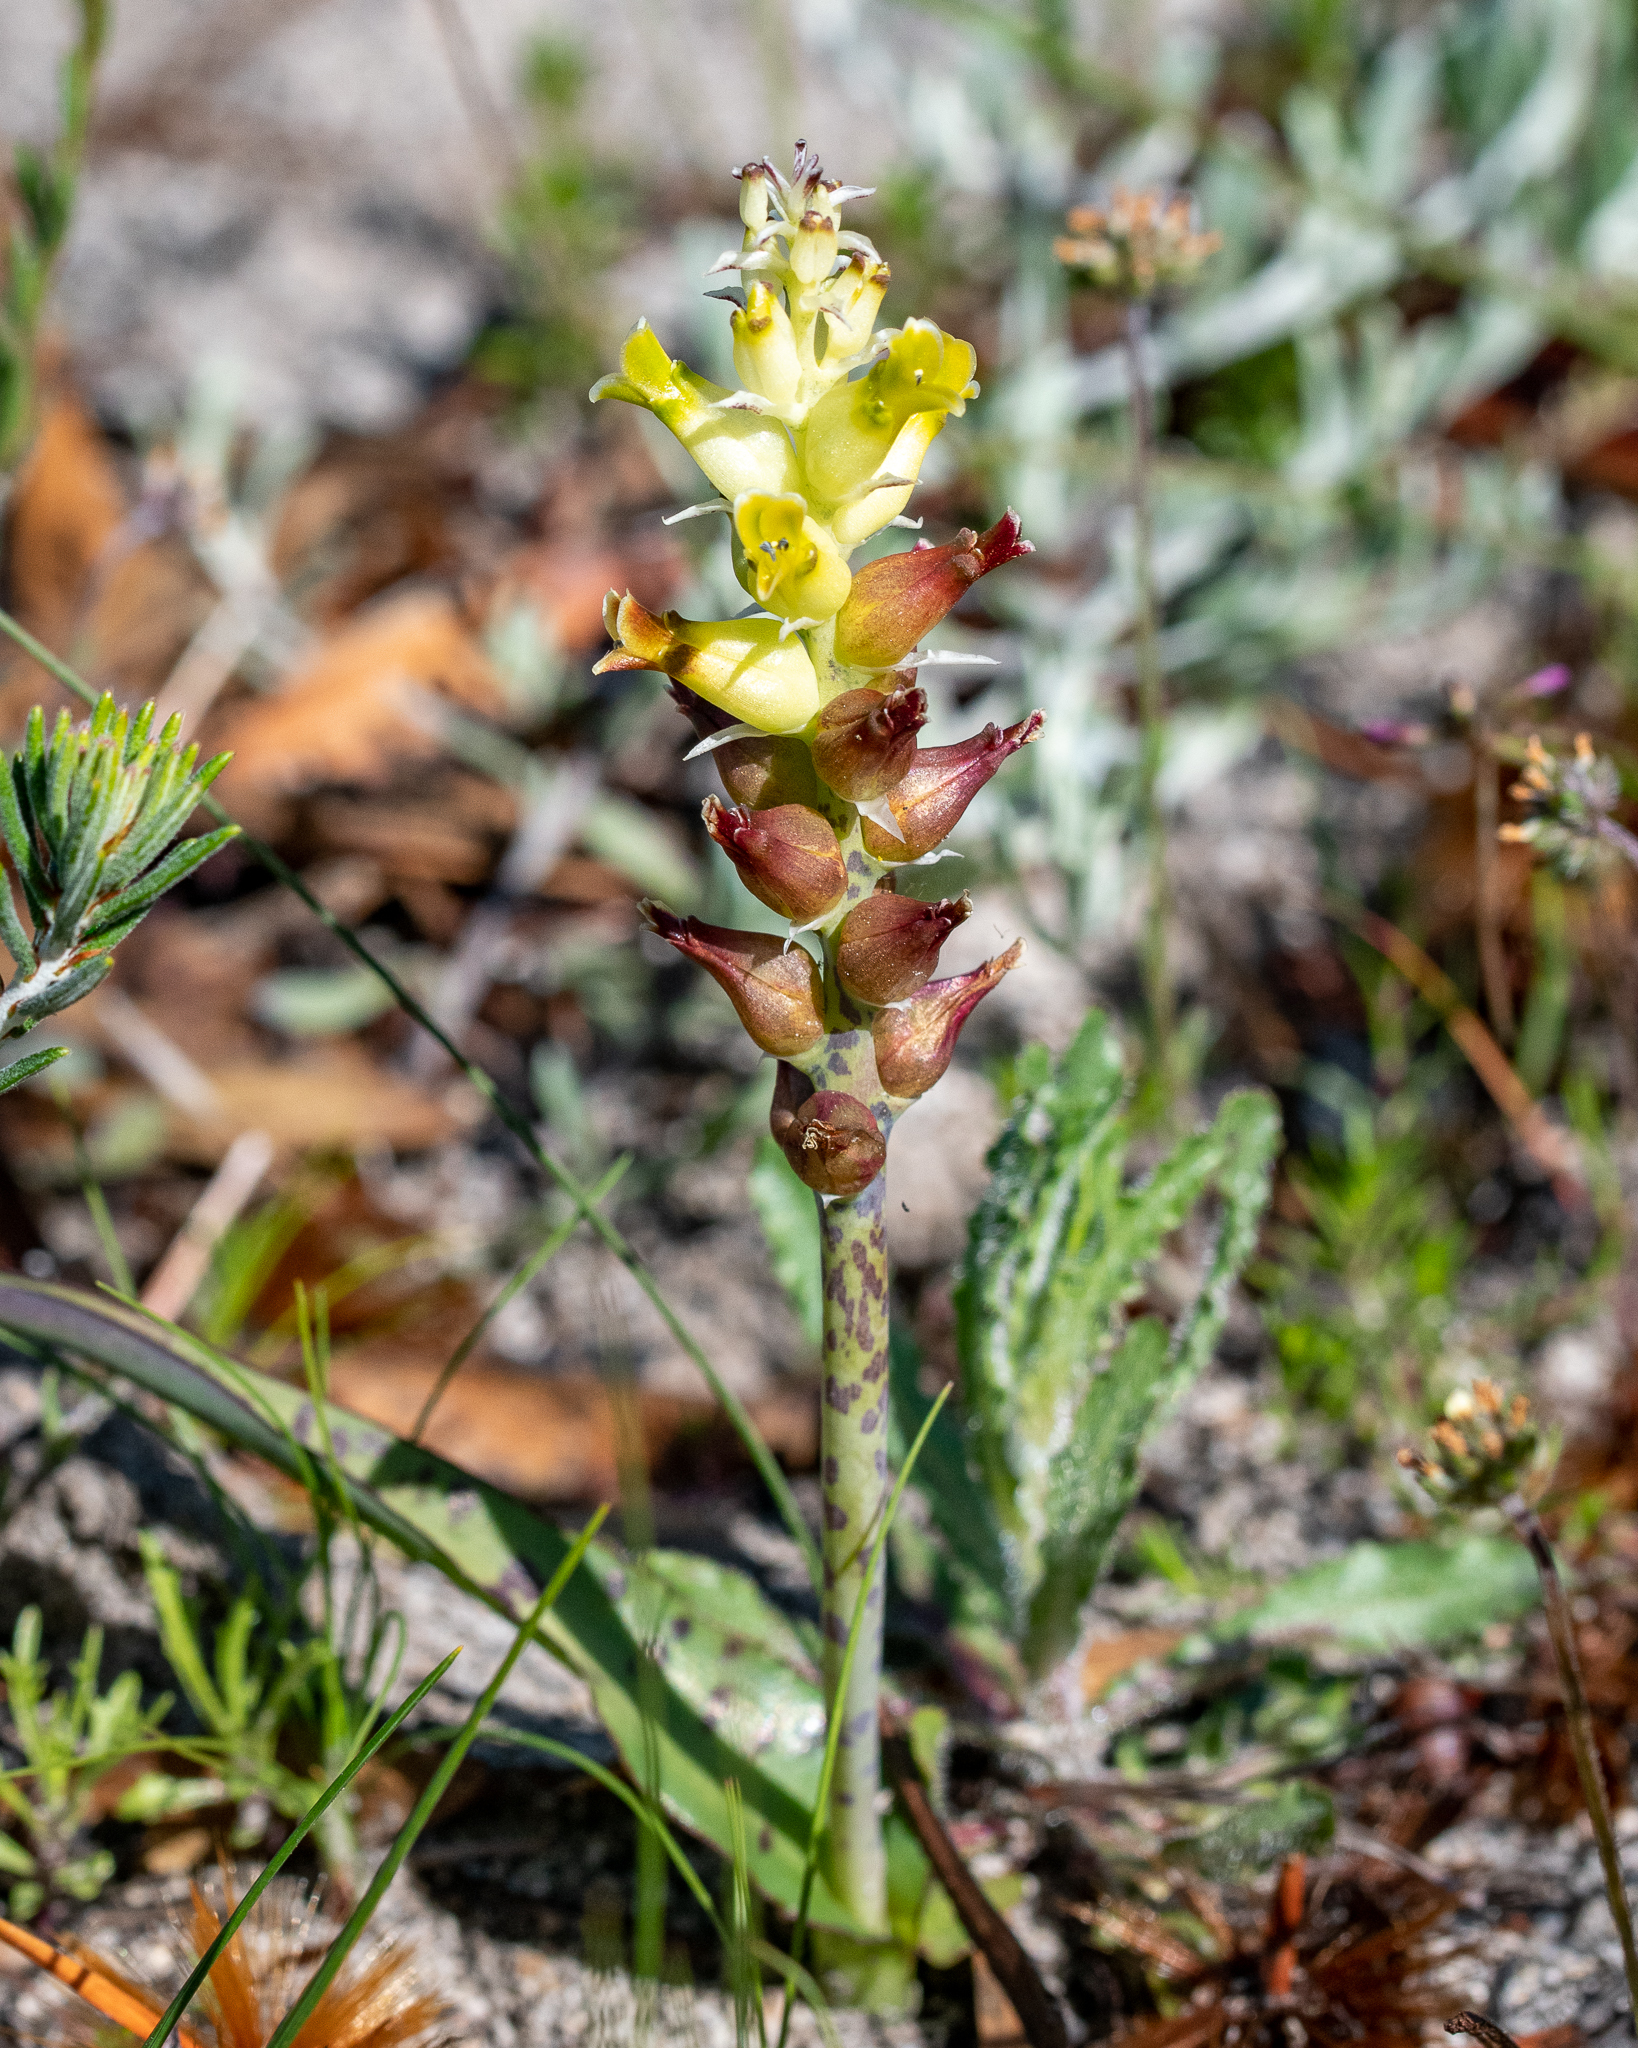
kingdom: Plantae
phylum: Tracheophyta
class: Liliopsida
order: Asparagales
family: Asparagaceae
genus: Lachenalia
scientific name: Lachenalia lutea
